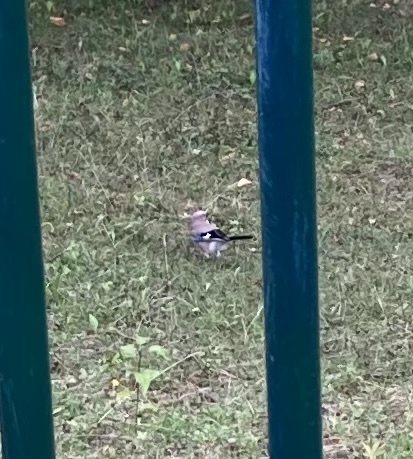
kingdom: Animalia
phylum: Chordata
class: Aves
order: Passeriformes
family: Corvidae
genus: Garrulus
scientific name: Garrulus glandarius
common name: Eurasian jay
